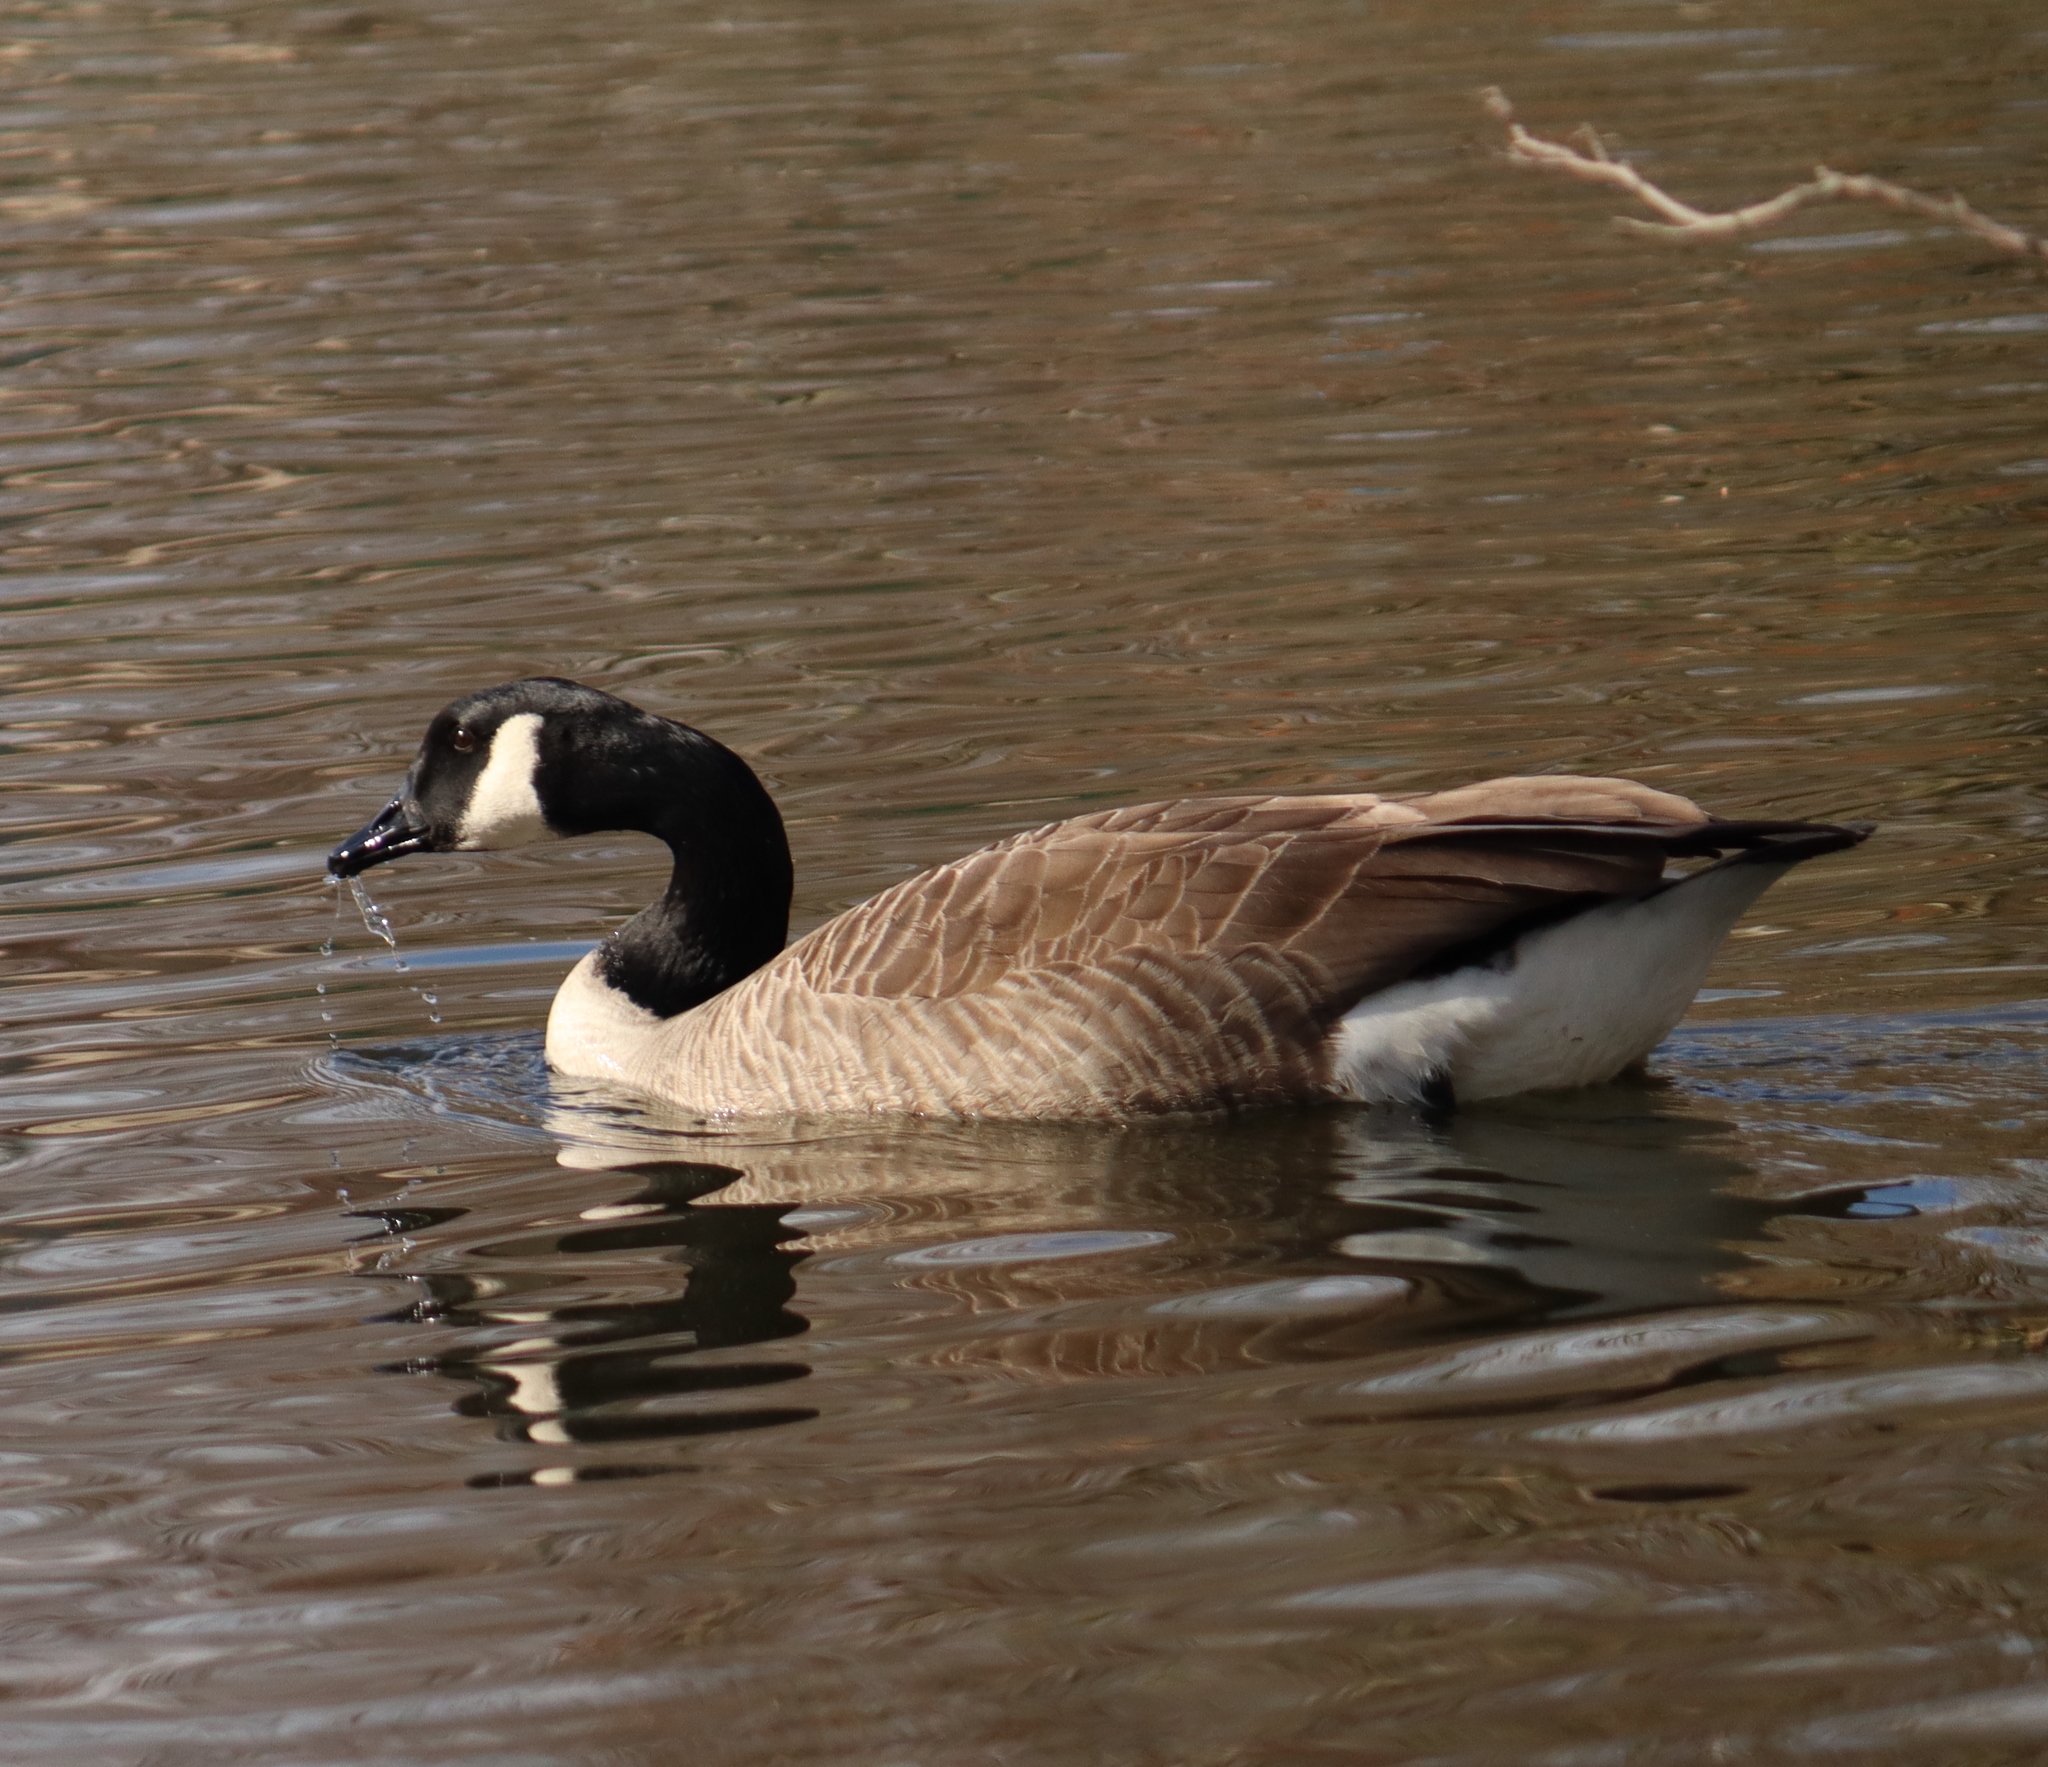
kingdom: Animalia
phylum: Chordata
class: Aves
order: Anseriformes
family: Anatidae
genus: Branta
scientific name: Branta canadensis
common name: Canada goose
